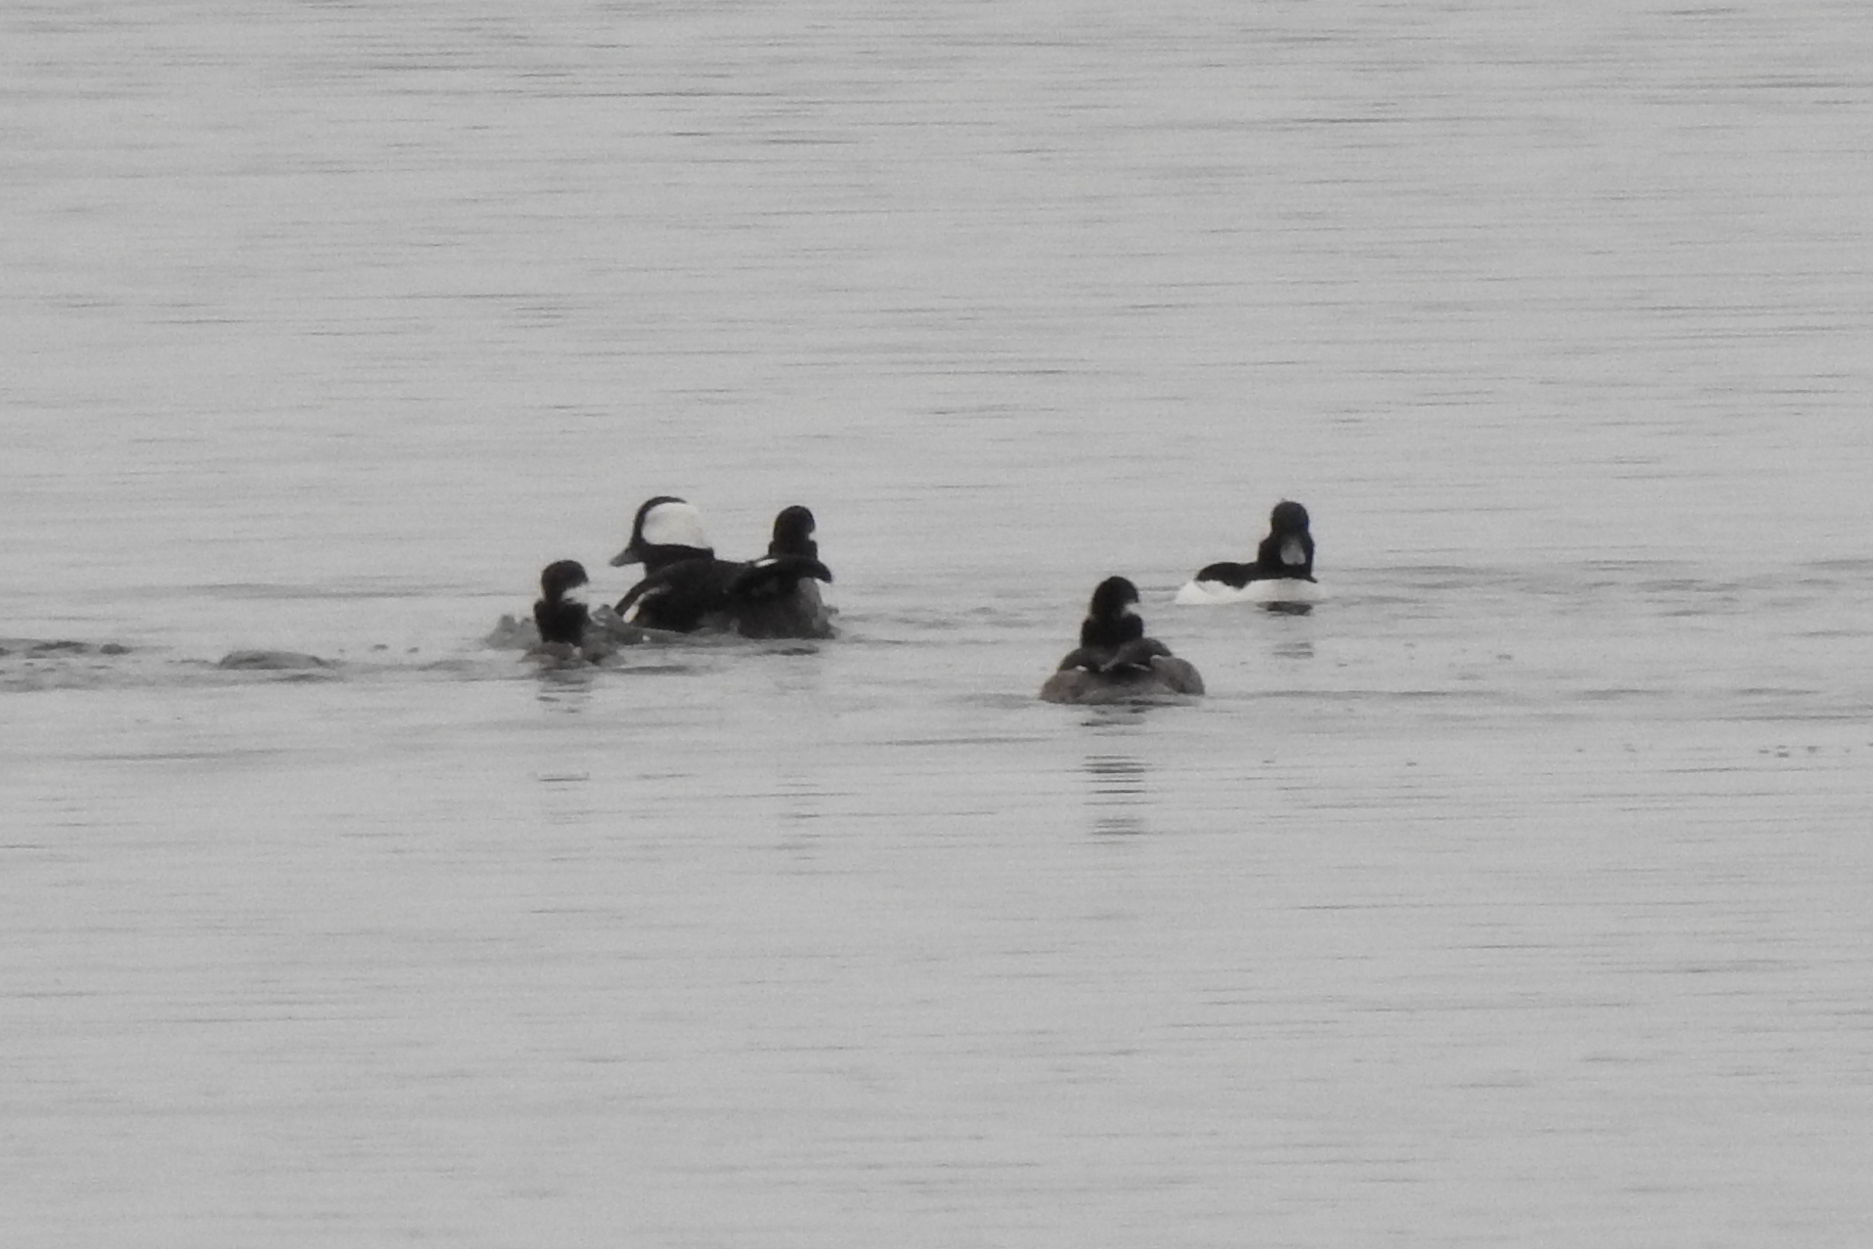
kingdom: Animalia
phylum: Chordata
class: Aves
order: Anseriformes
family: Anatidae
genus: Bucephala
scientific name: Bucephala albeola
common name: Bufflehead
